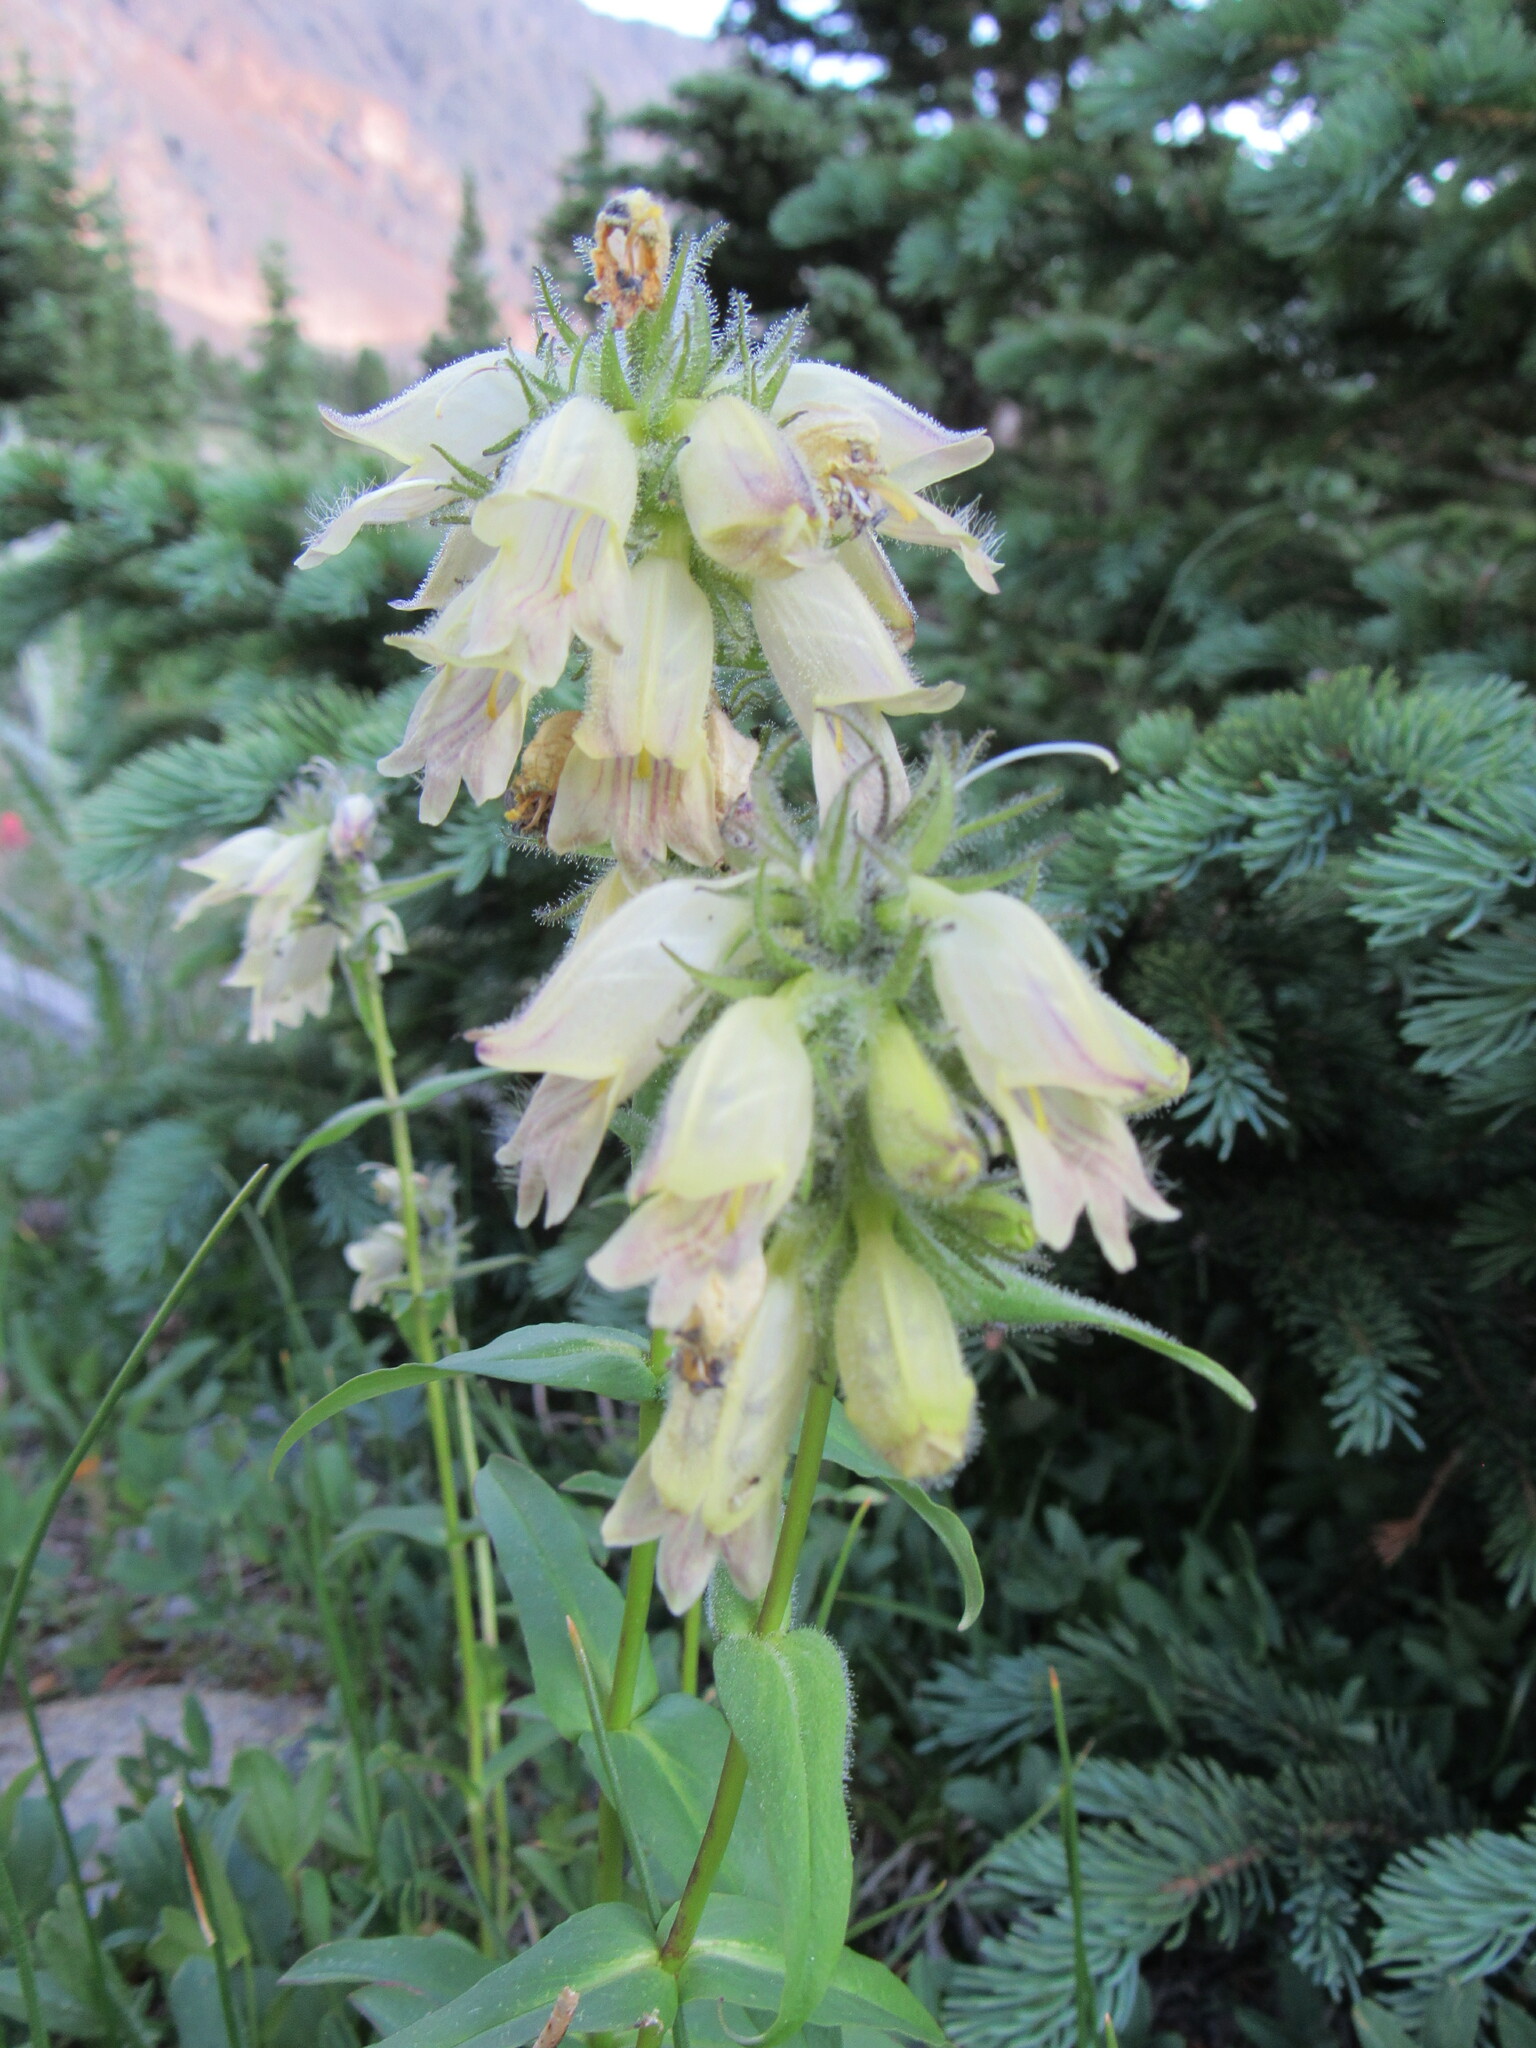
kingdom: Plantae
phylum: Tracheophyta
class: Magnoliopsida
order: Lamiales
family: Plantaginaceae
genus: Penstemon
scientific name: Penstemon whippleanus
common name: Whipple's penstemon
